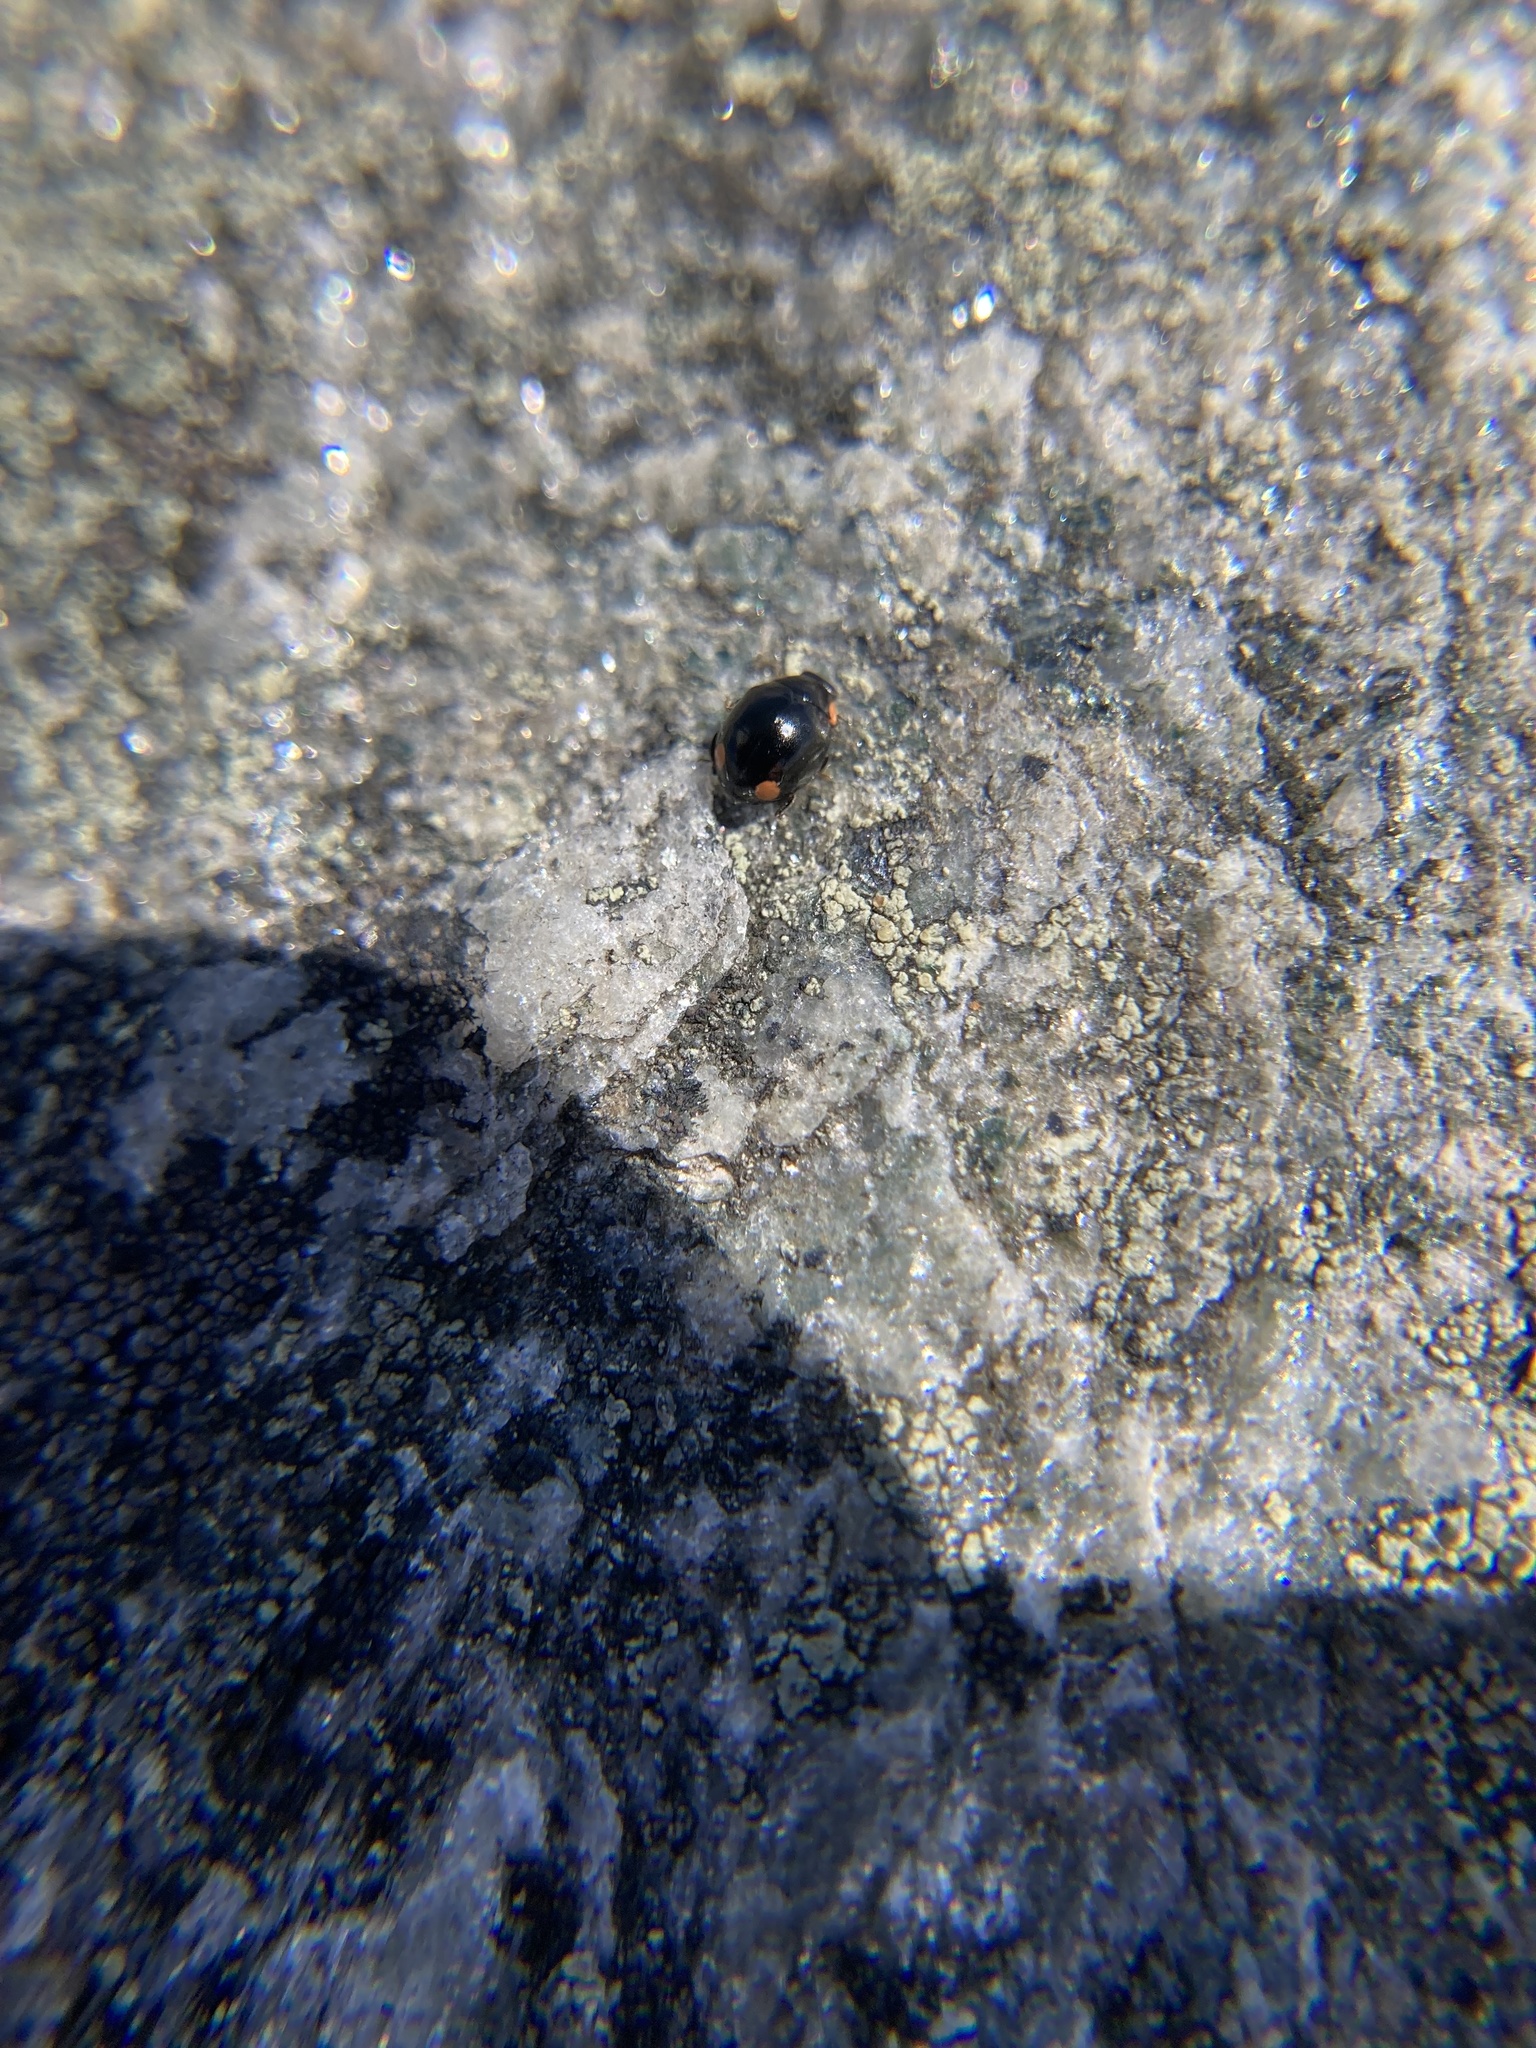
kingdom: Animalia
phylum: Arthropoda
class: Insecta
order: Coleoptera
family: Coccinellidae
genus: Hyperaspis
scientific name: Hyperaspis bigeminata
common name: Bigeminate sigil lady beetle
